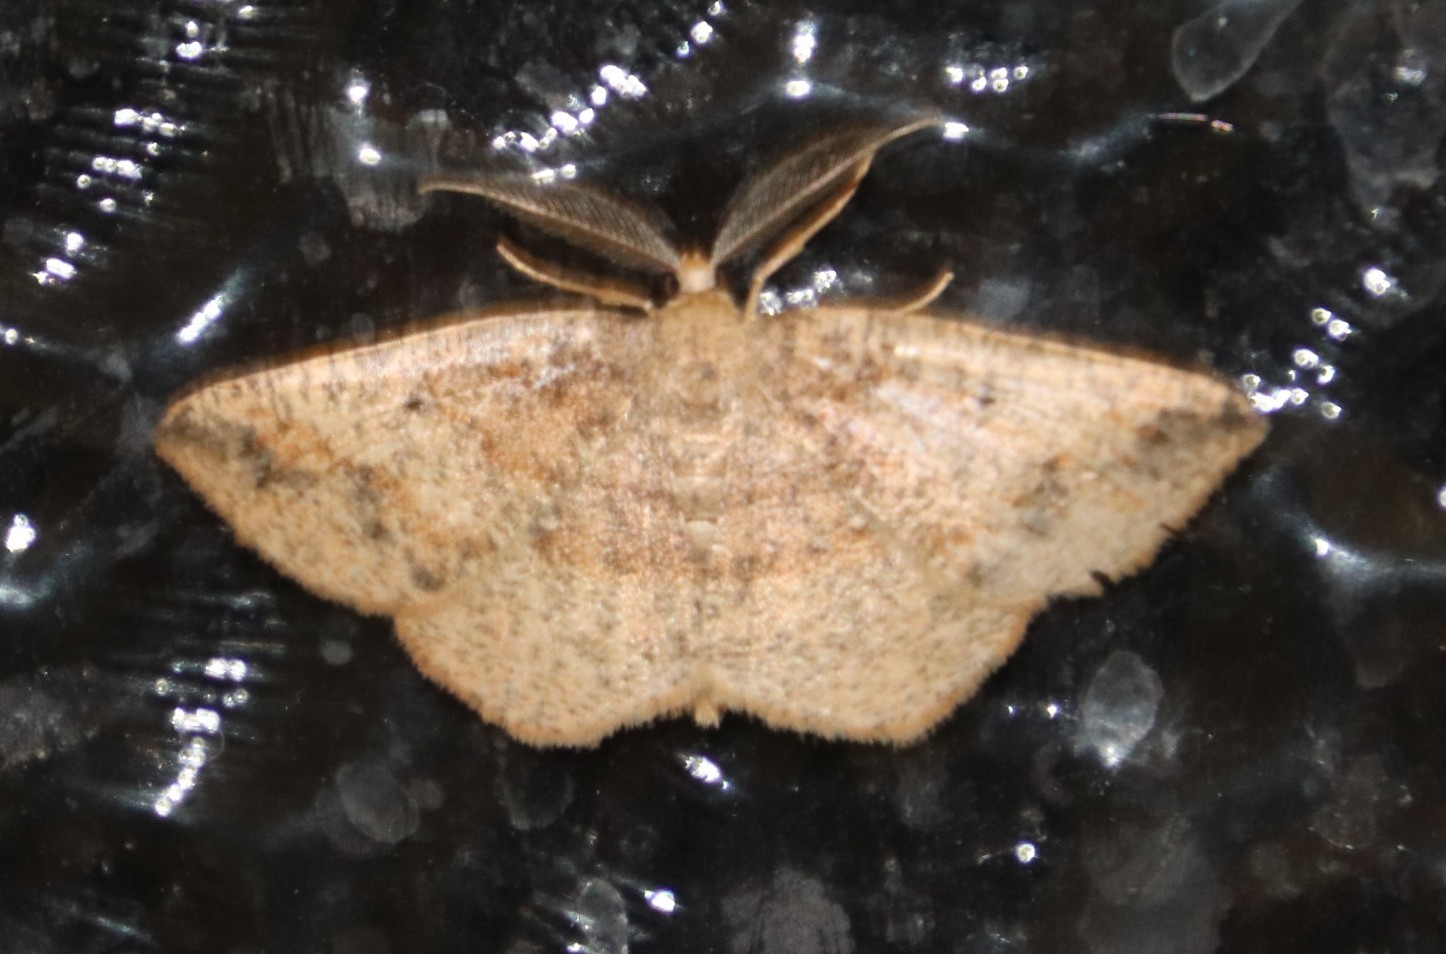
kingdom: Animalia
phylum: Arthropoda
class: Insecta
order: Lepidoptera
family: Geometridae
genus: Cabera
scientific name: Cabera strigata
